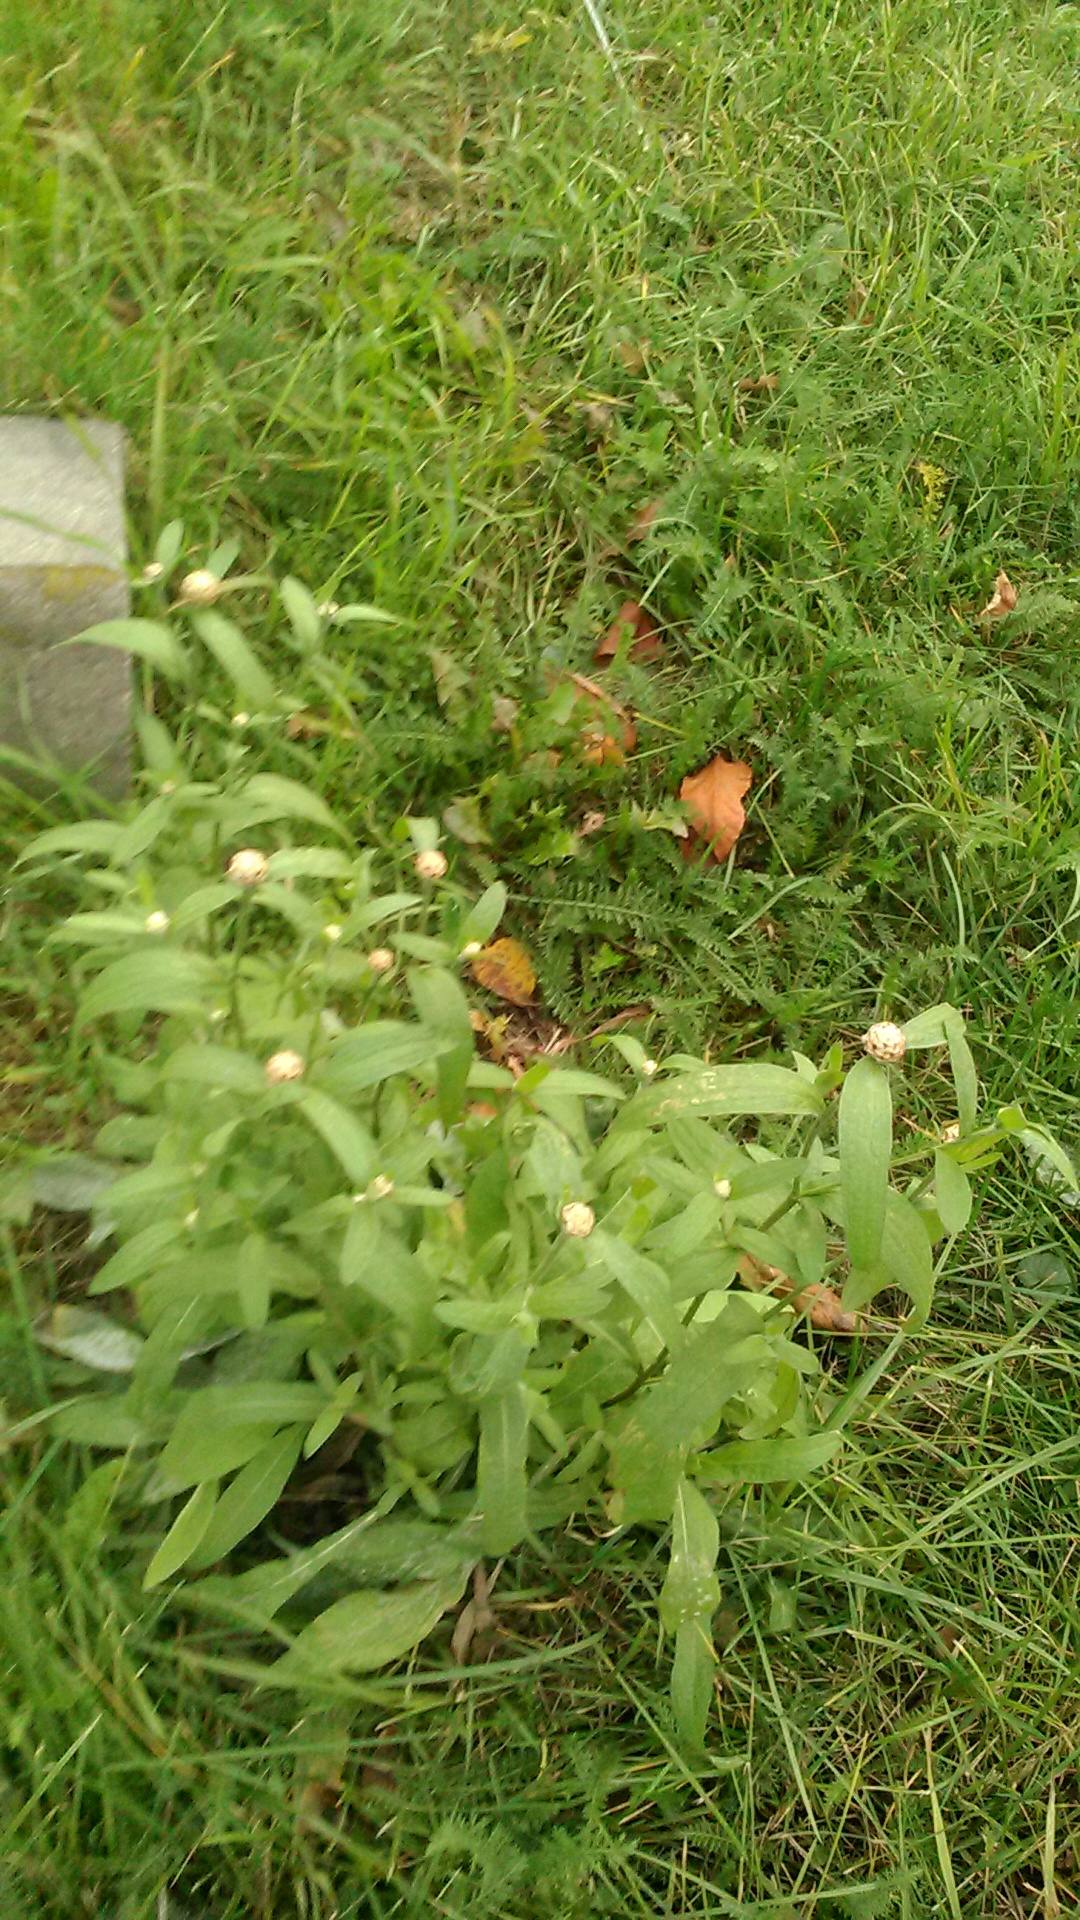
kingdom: Plantae
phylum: Tracheophyta
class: Magnoliopsida
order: Asterales
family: Asteraceae
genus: Centaurea
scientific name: Centaurea jacea
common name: Brown knapweed
